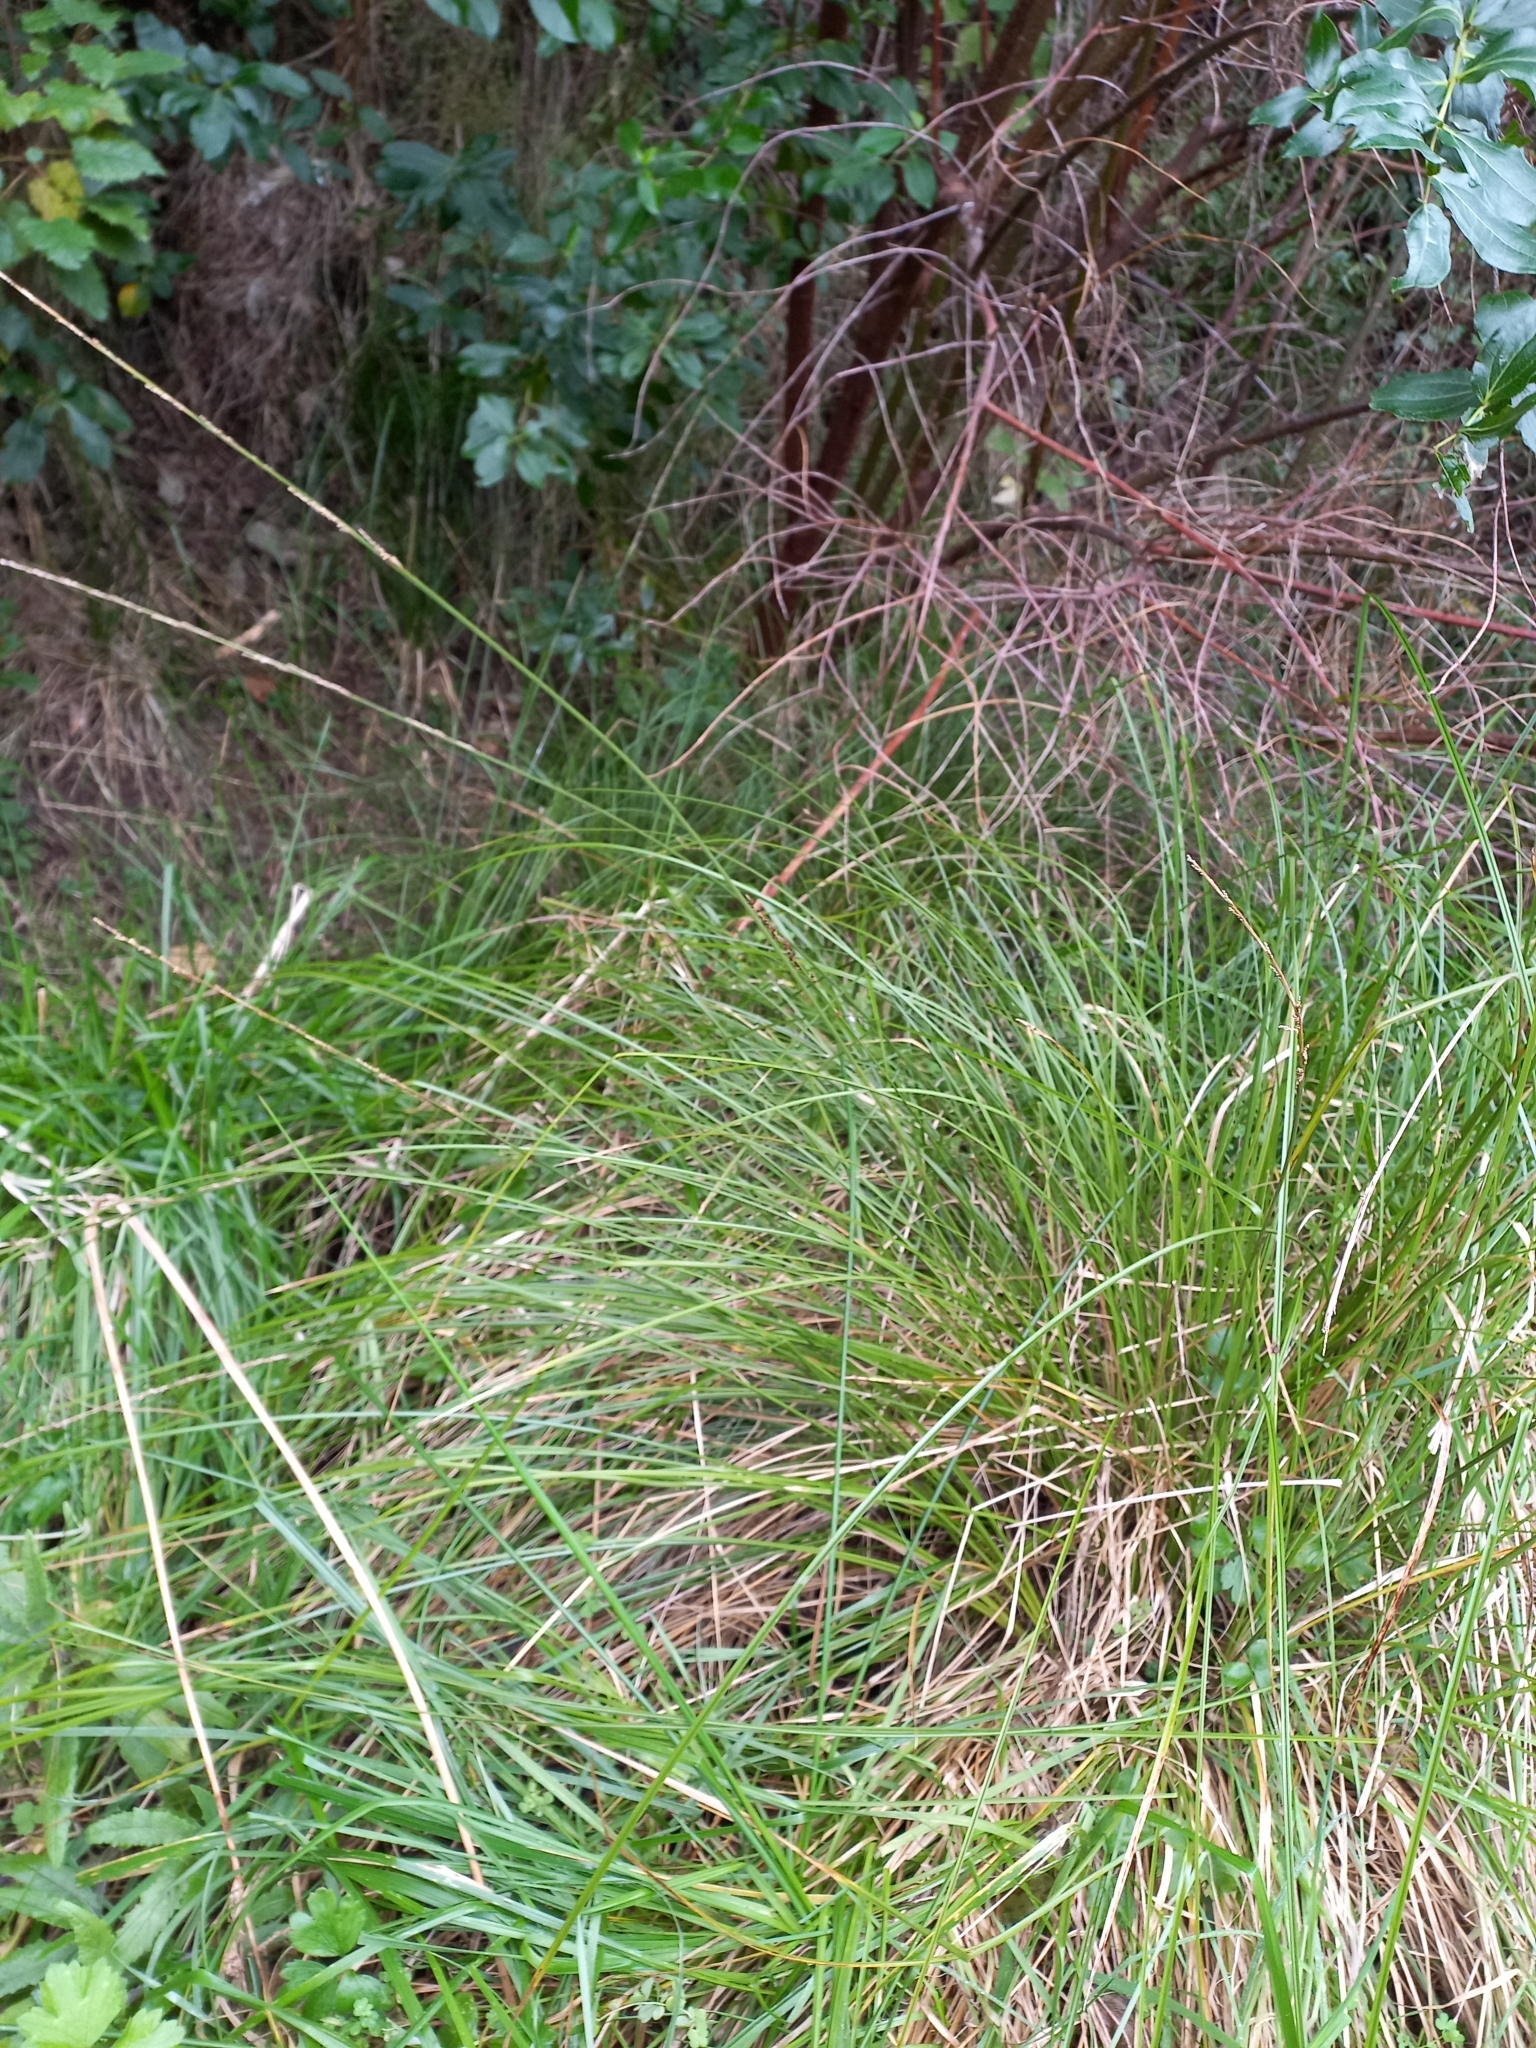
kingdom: Plantae
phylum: Tracheophyta
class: Liliopsida
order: Poales
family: Cyperaceae
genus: Carex
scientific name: Carex virgata
